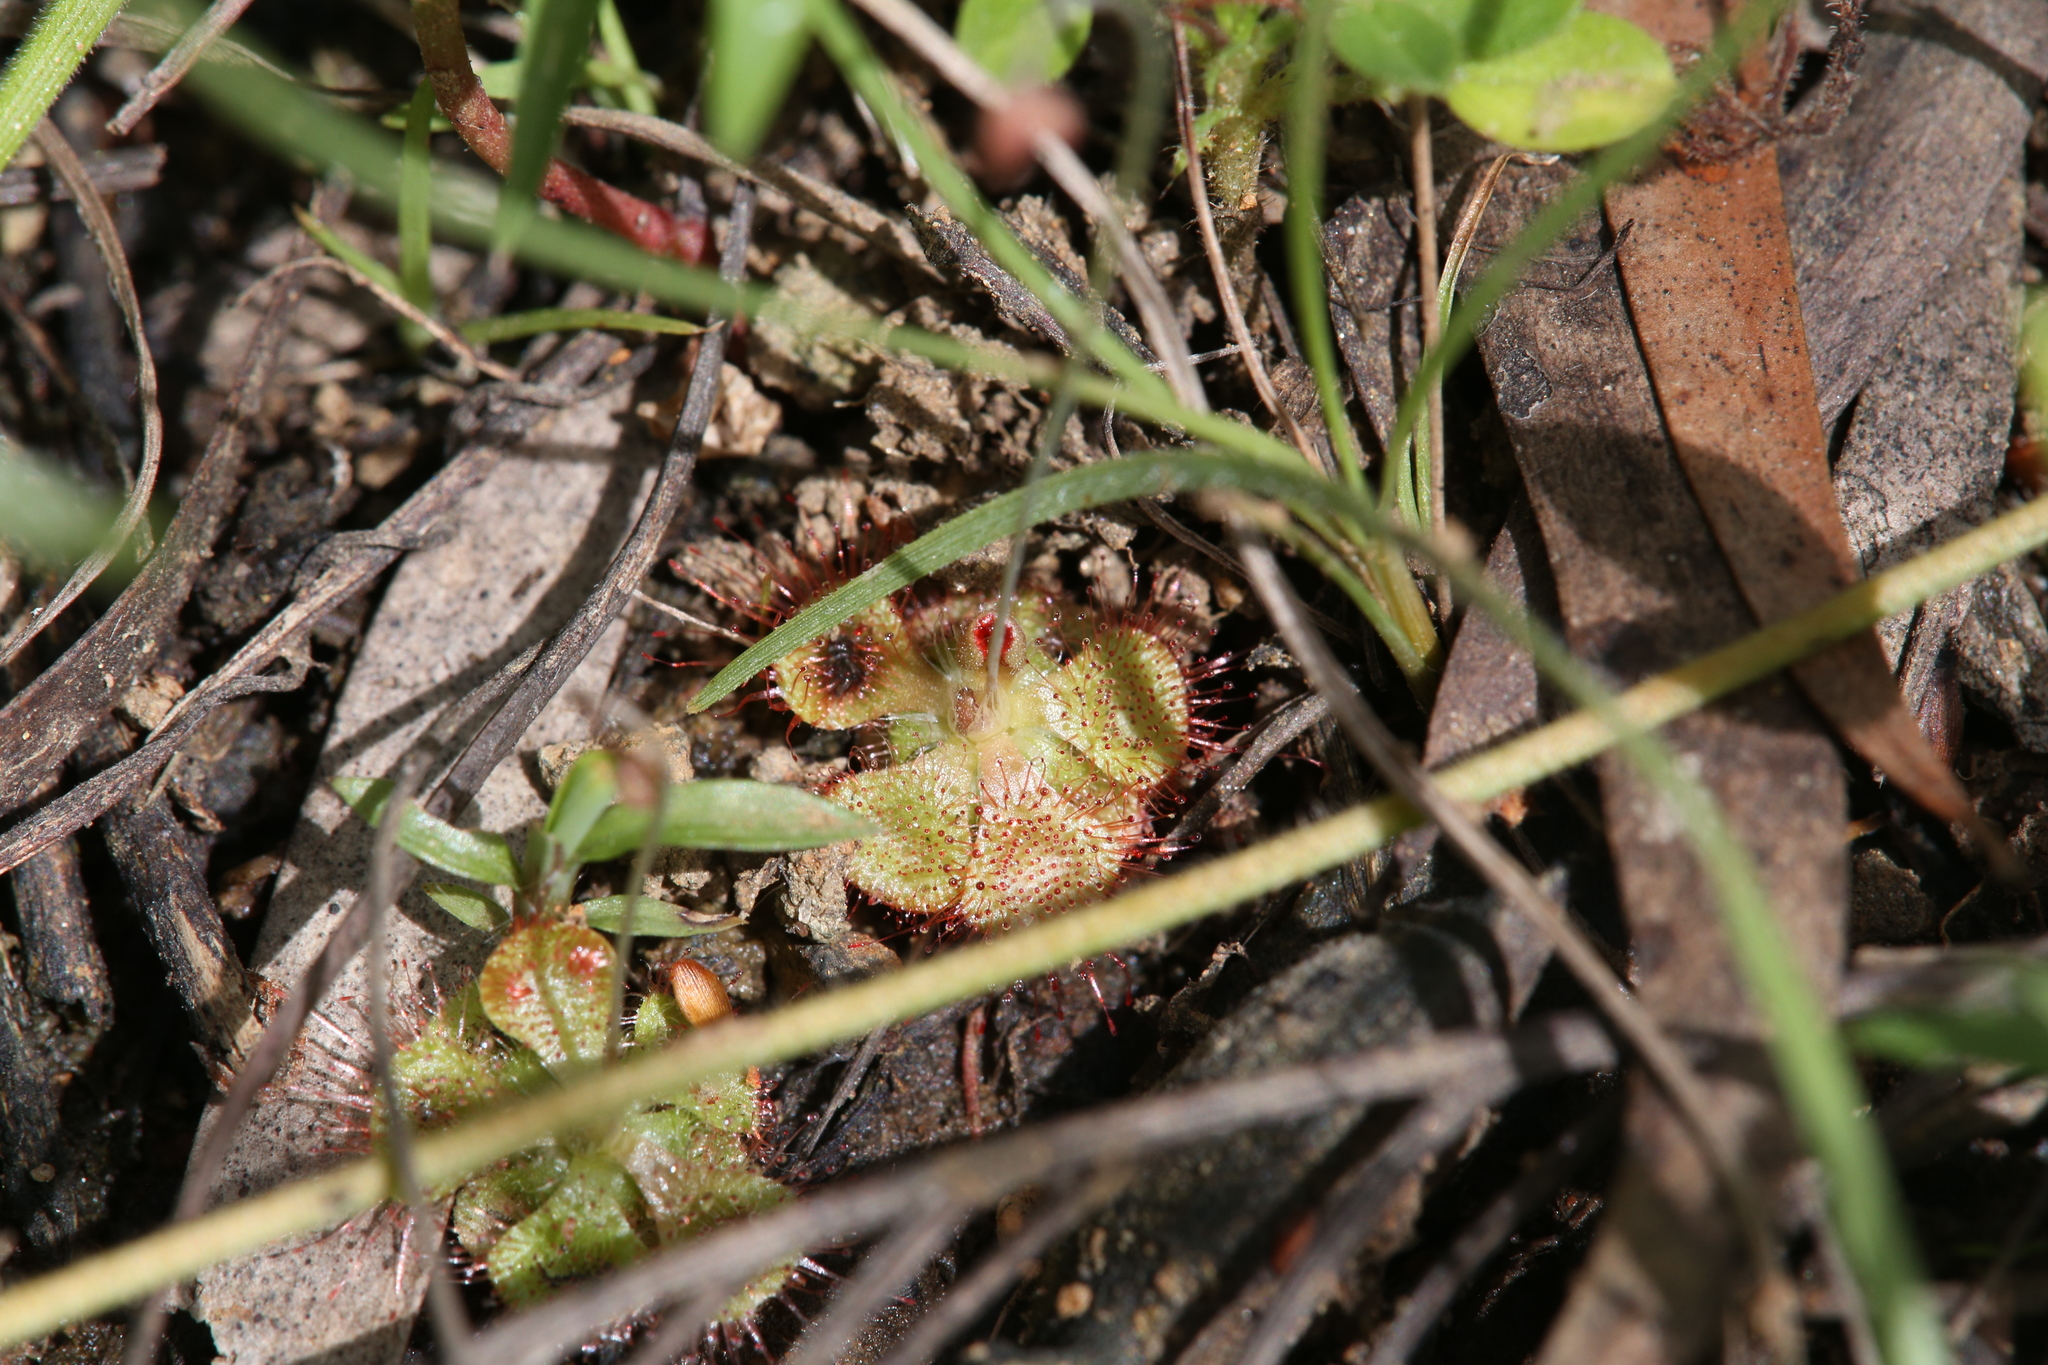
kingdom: Plantae
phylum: Tracheophyta
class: Magnoliopsida
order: Caryophyllales
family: Droseraceae
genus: Drosera
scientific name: Drosera spatulata
